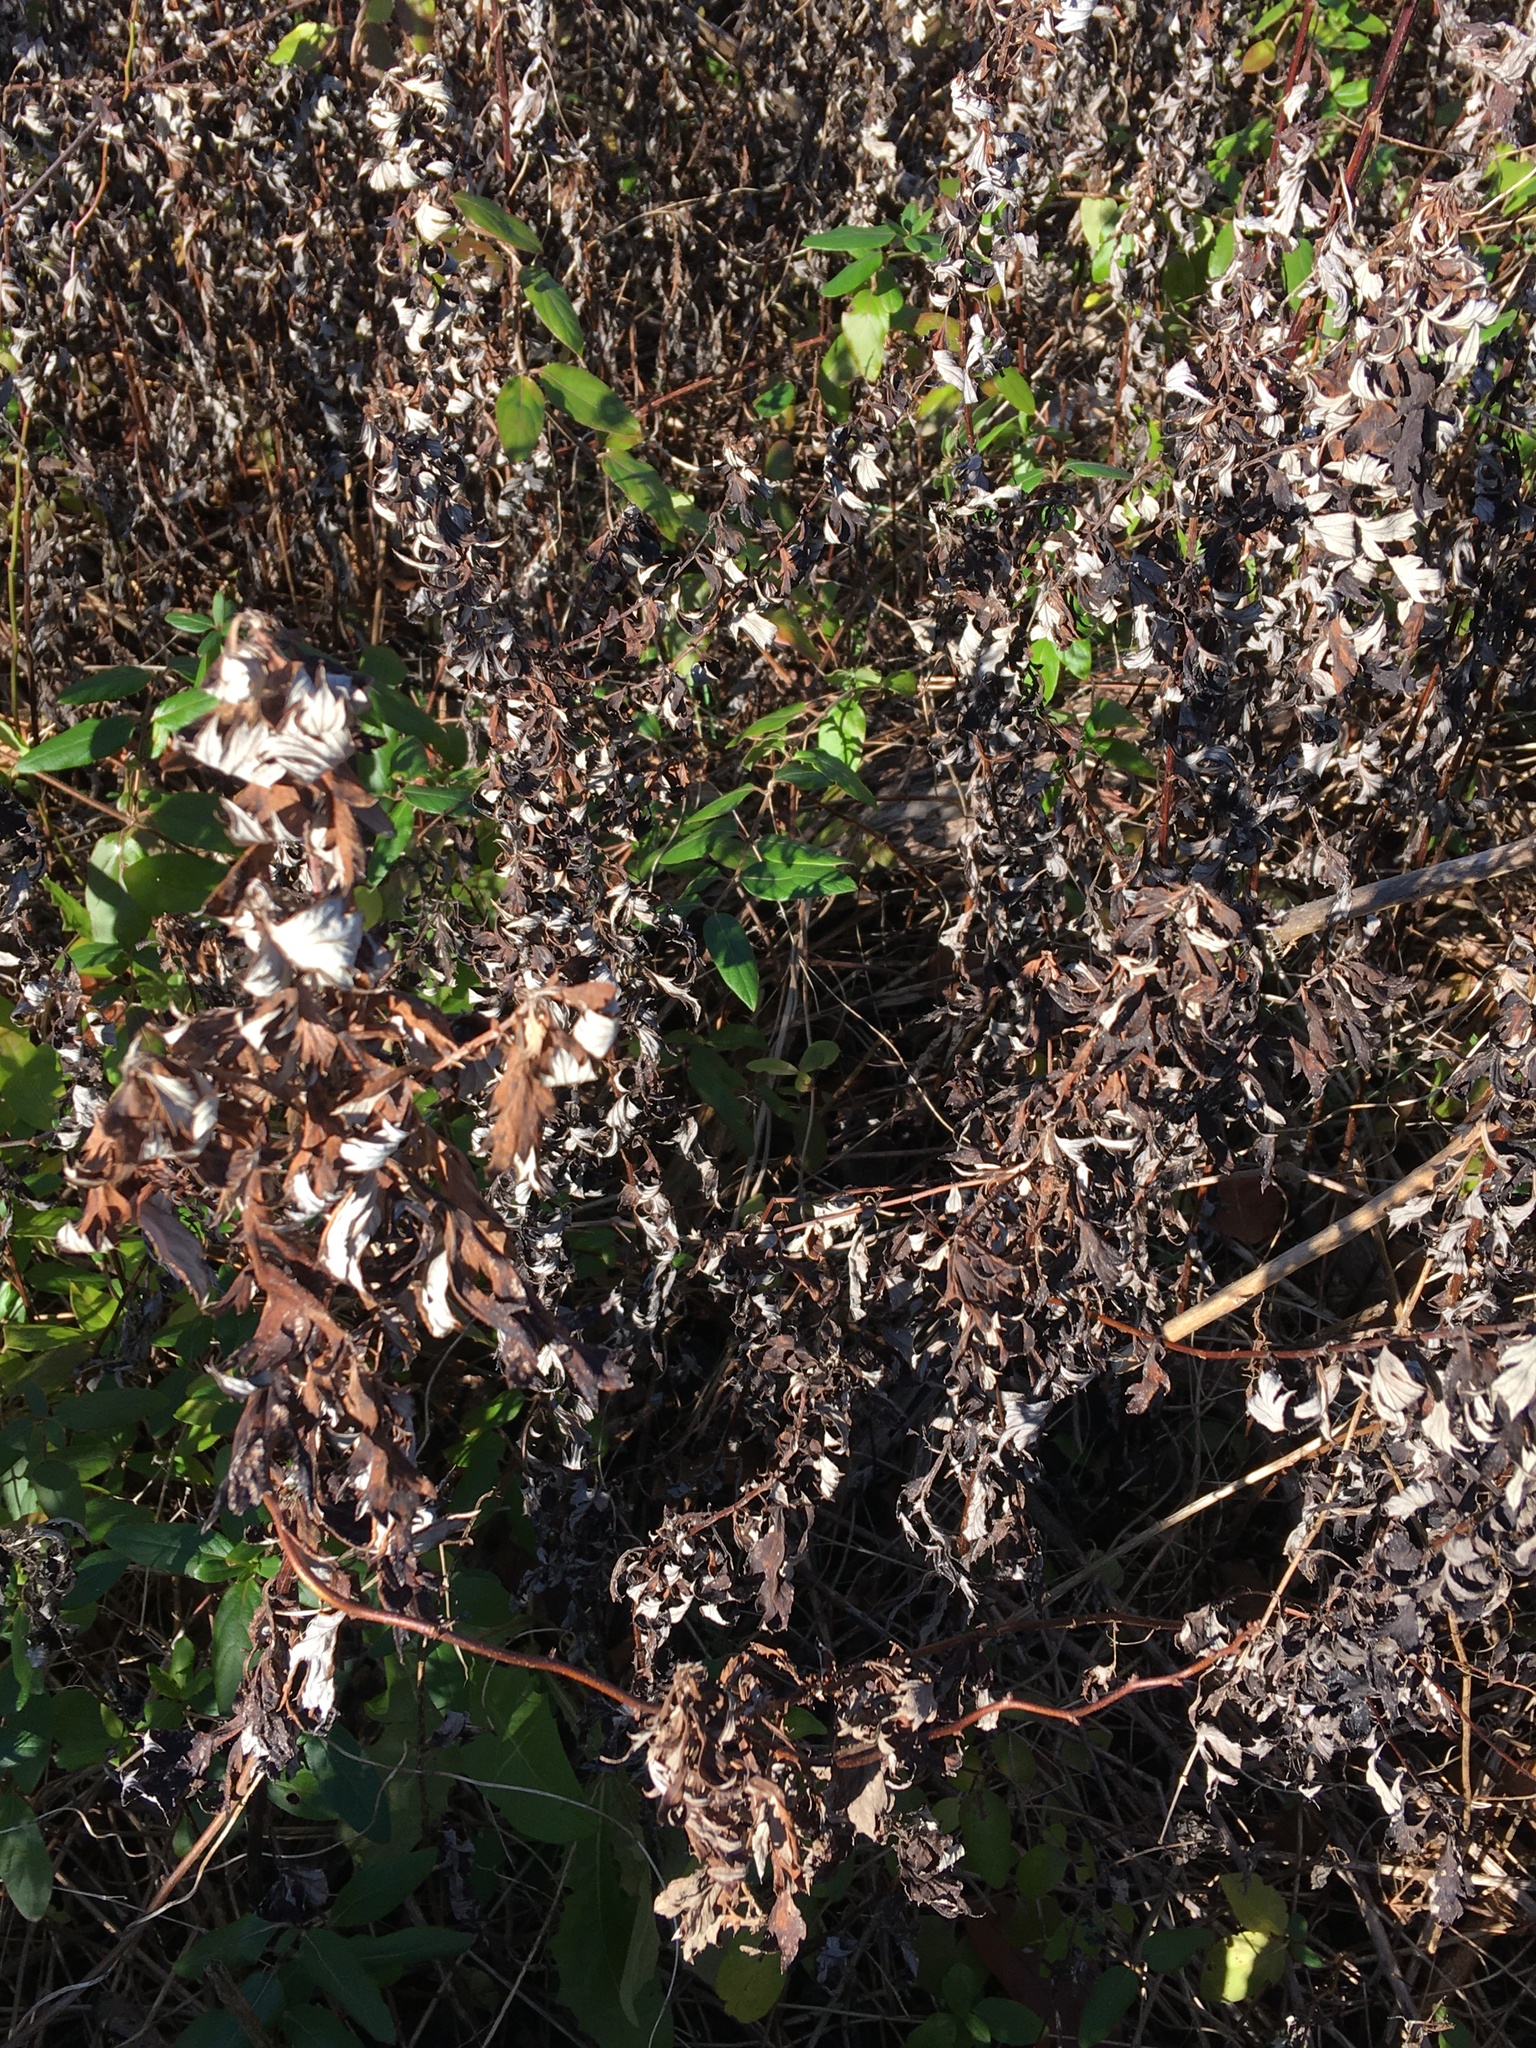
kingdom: Plantae
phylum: Tracheophyta
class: Magnoliopsida
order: Asterales
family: Asteraceae
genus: Artemisia
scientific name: Artemisia vulgaris
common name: Mugwort
